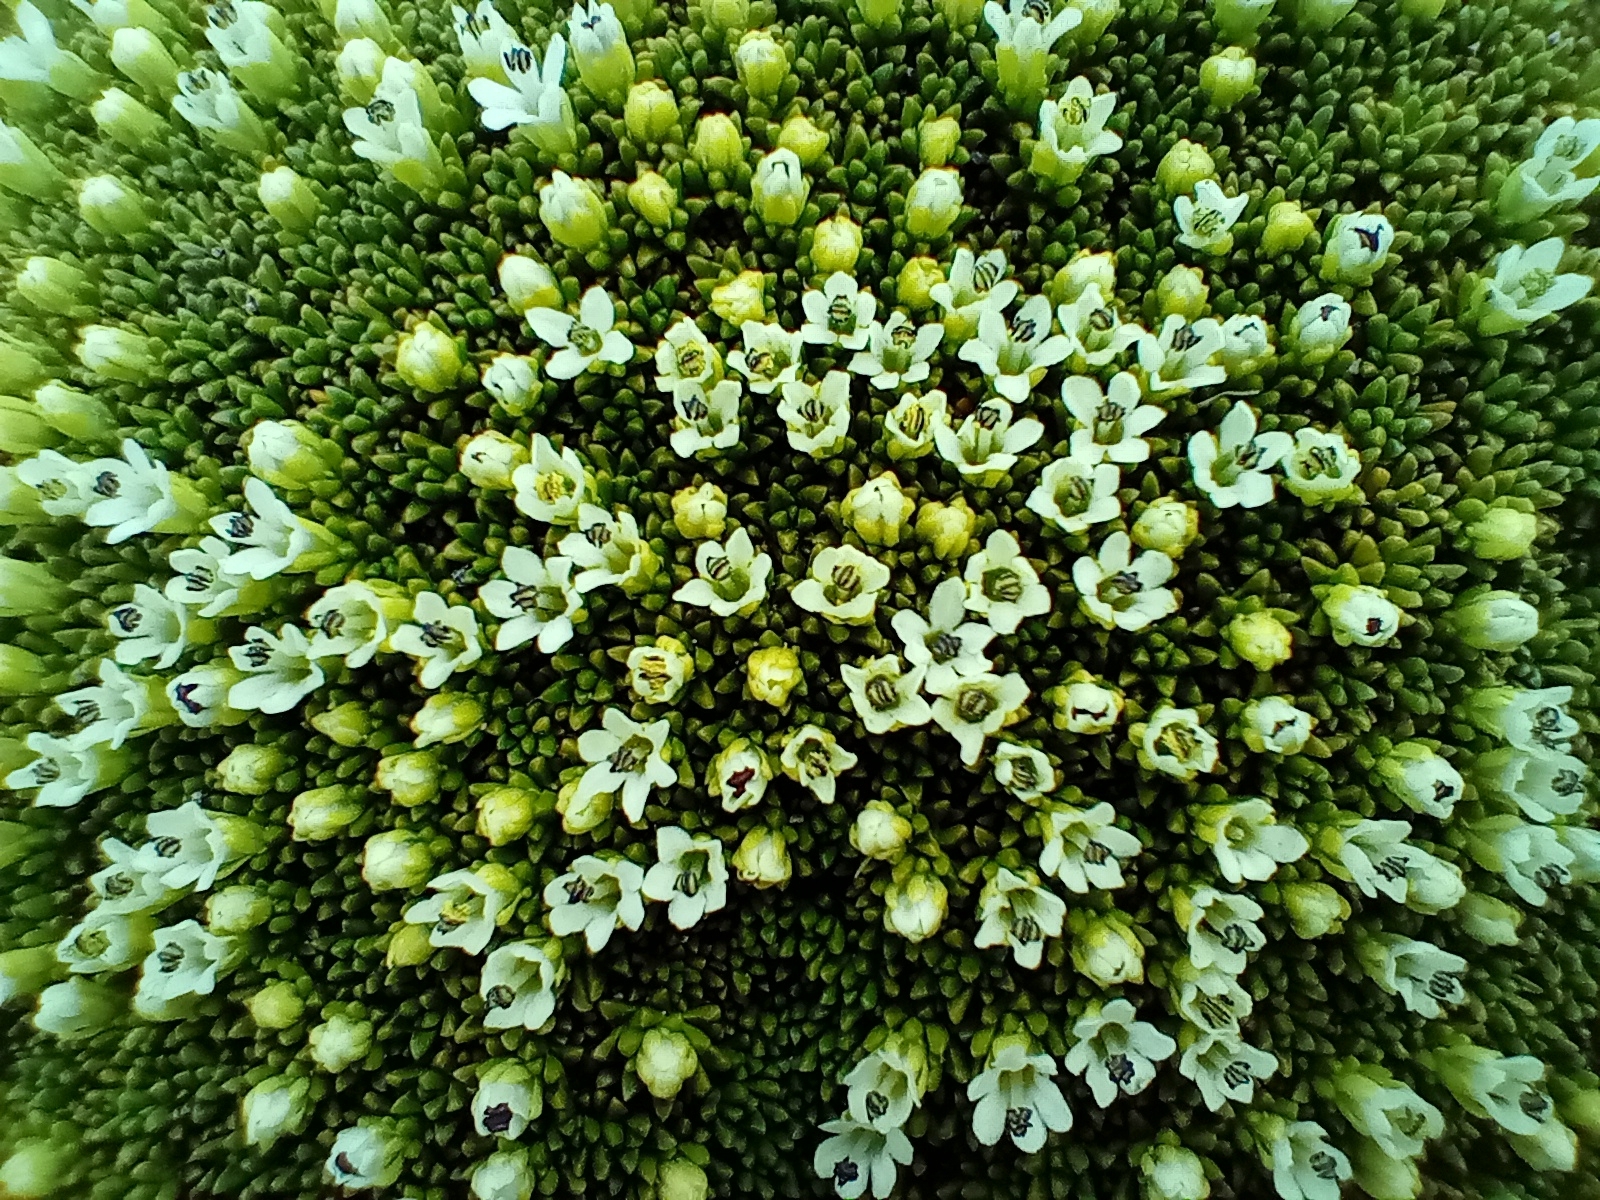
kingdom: Plantae
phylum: Tracheophyta
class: Magnoliopsida
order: Asterales
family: Stylidiaceae
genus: Phyllachne
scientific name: Phyllachne colensoi
